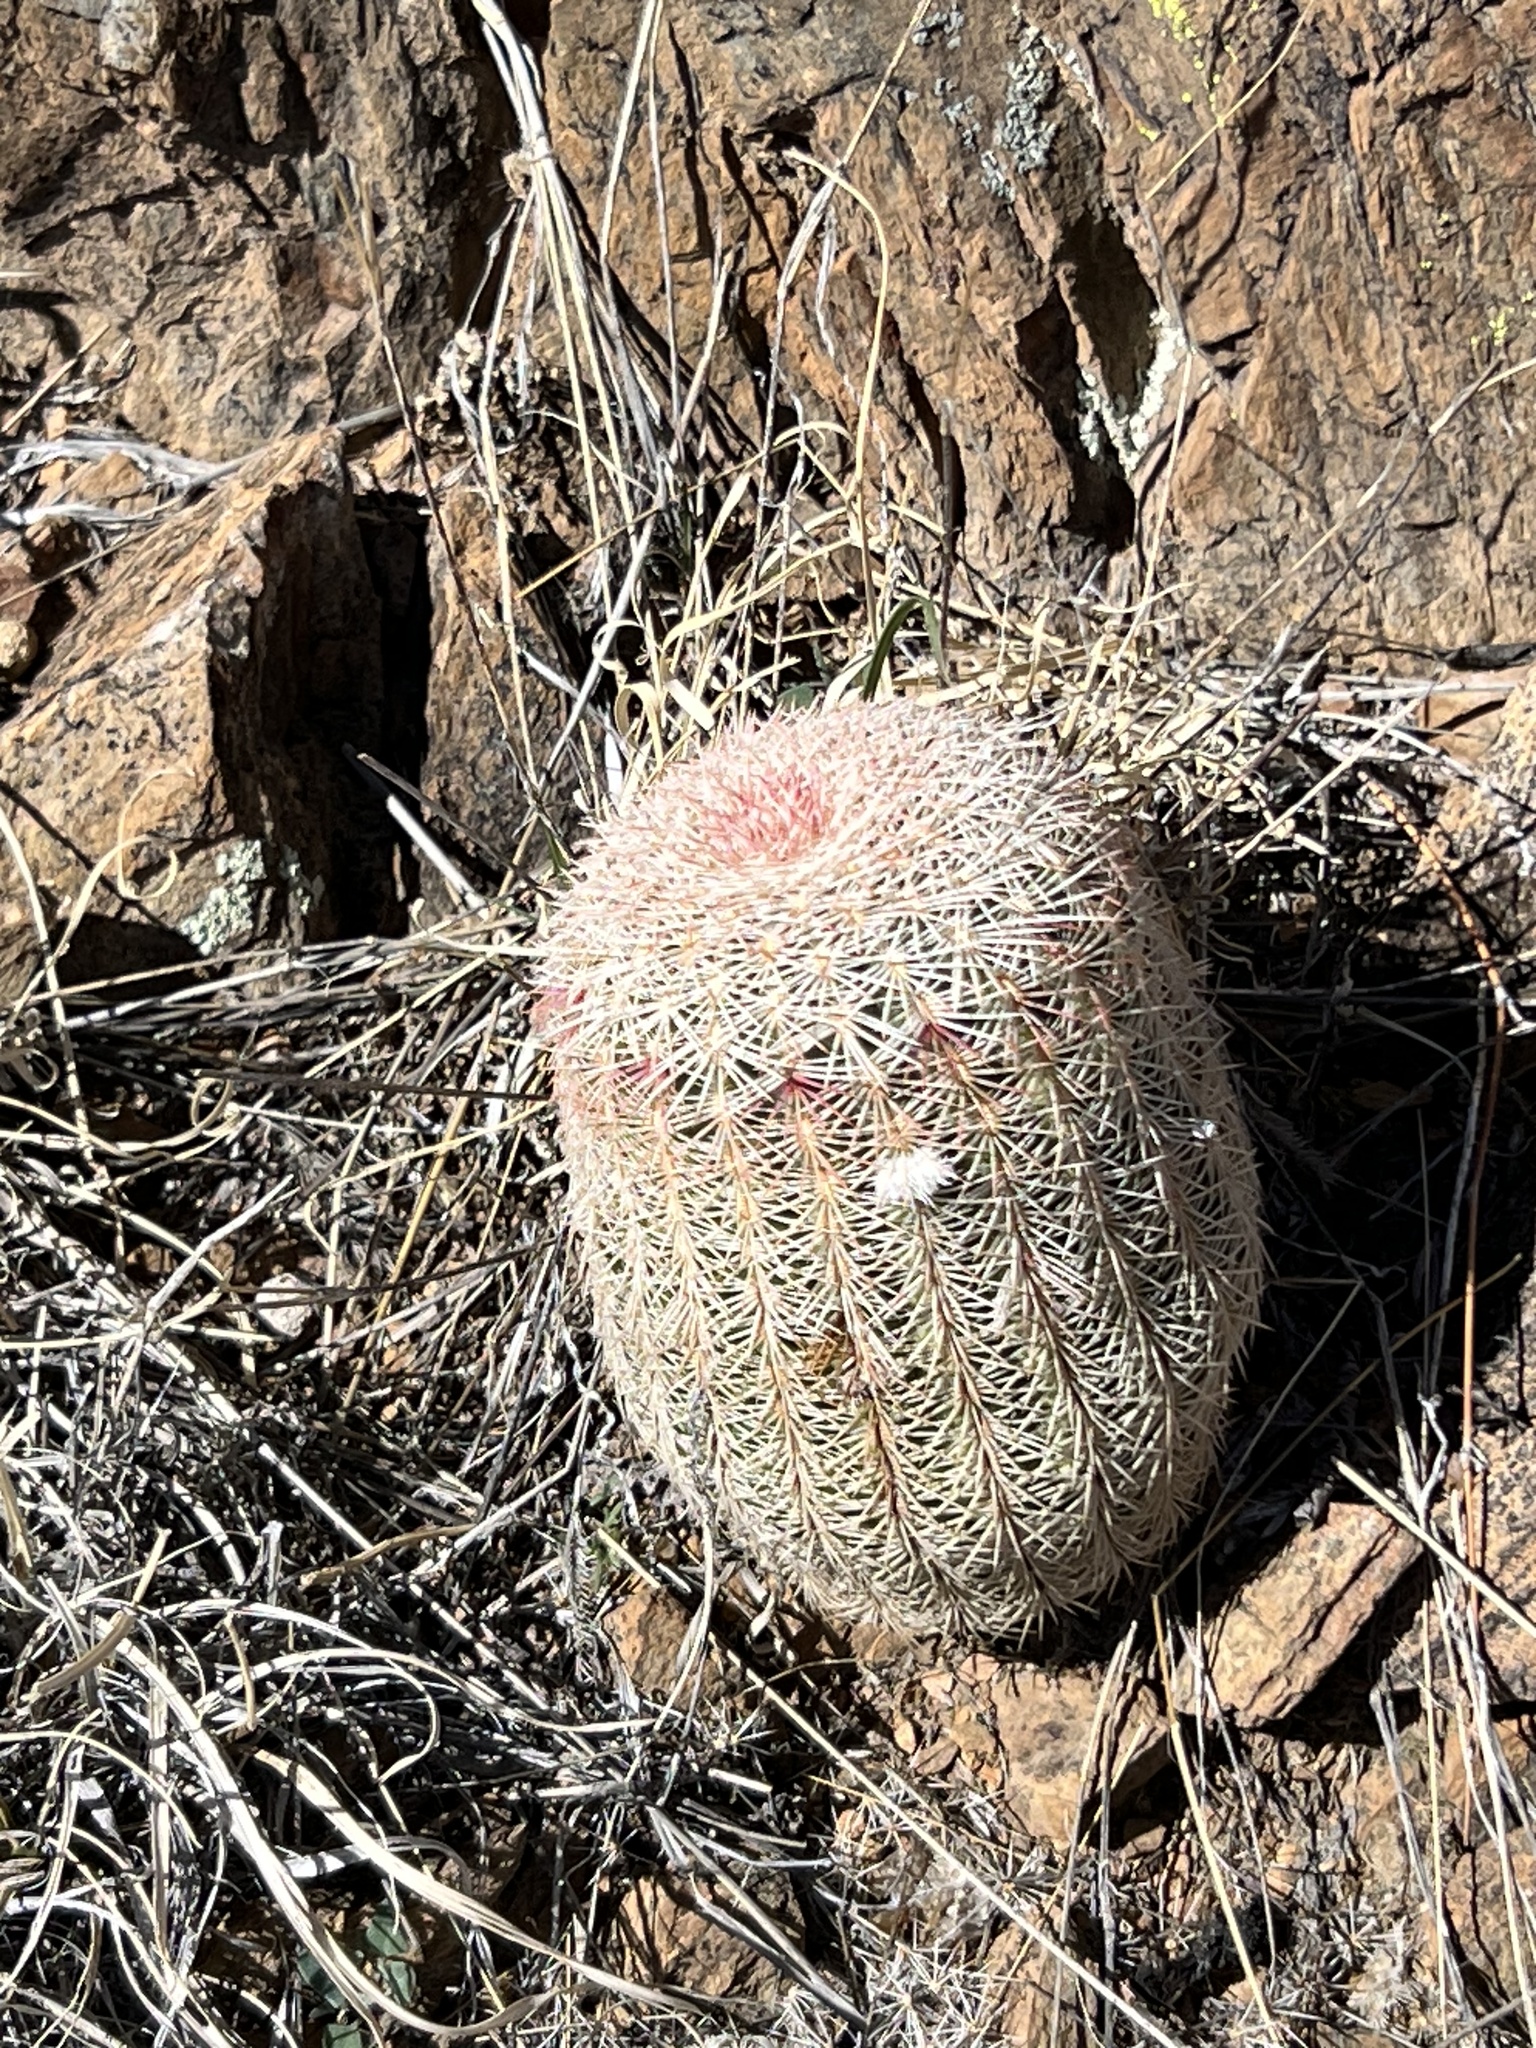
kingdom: Plantae
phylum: Tracheophyta
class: Magnoliopsida
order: Caryophyllales
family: Cactaceae
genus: Echinocereus
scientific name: Echinocereus rigidissimus
